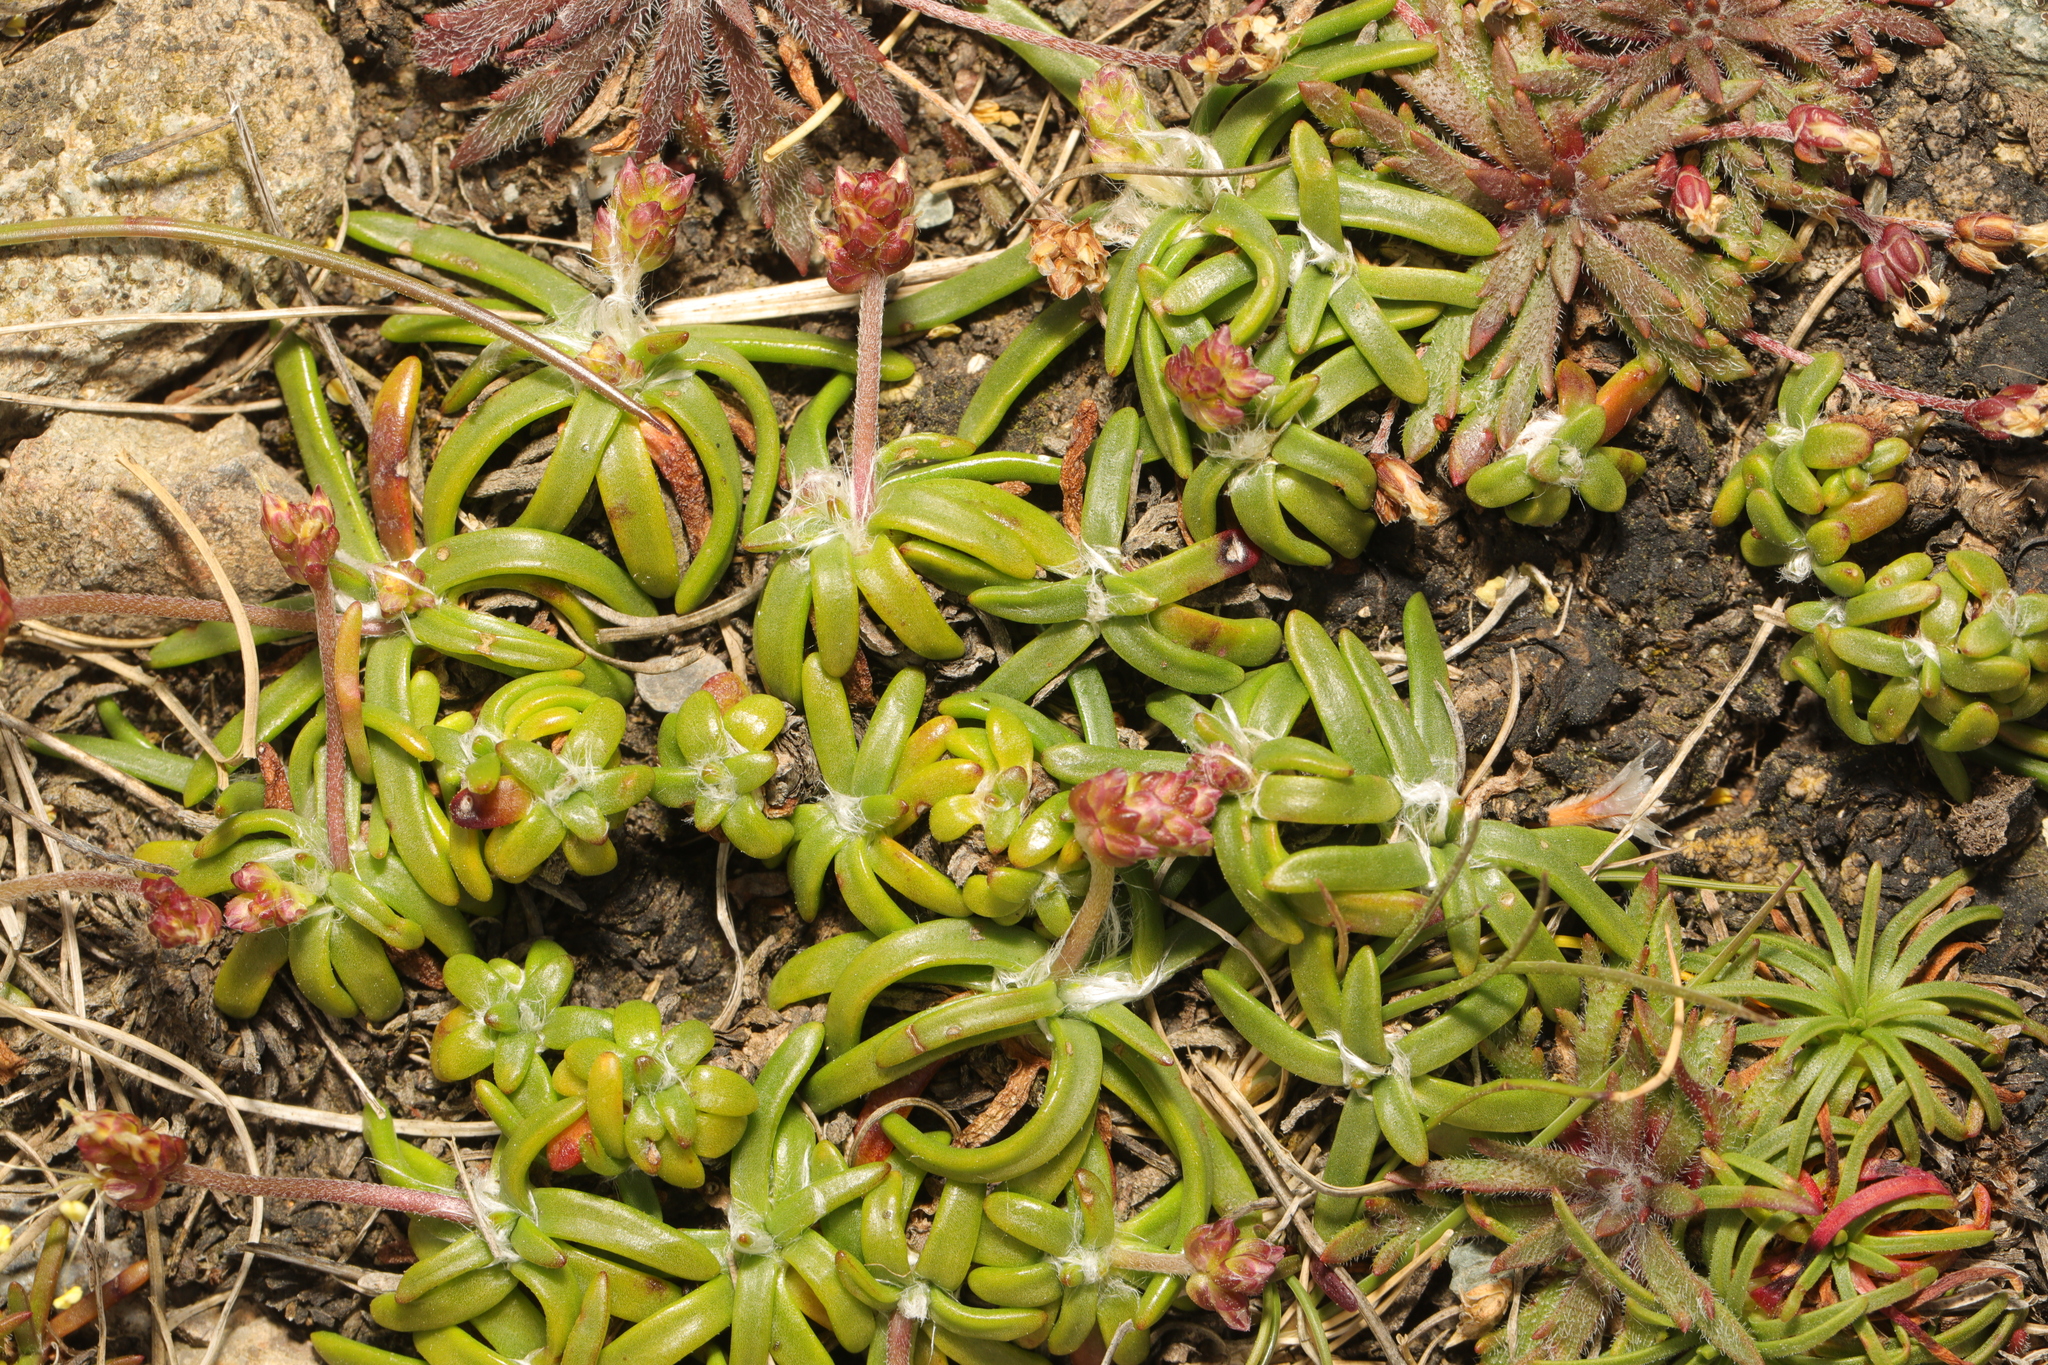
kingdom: Plantae
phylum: Tracheophyta
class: Magnoliopsida
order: Caryophyllales
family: Plumbaginaceae
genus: Armeria
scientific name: Armeria maritima
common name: Thrift
